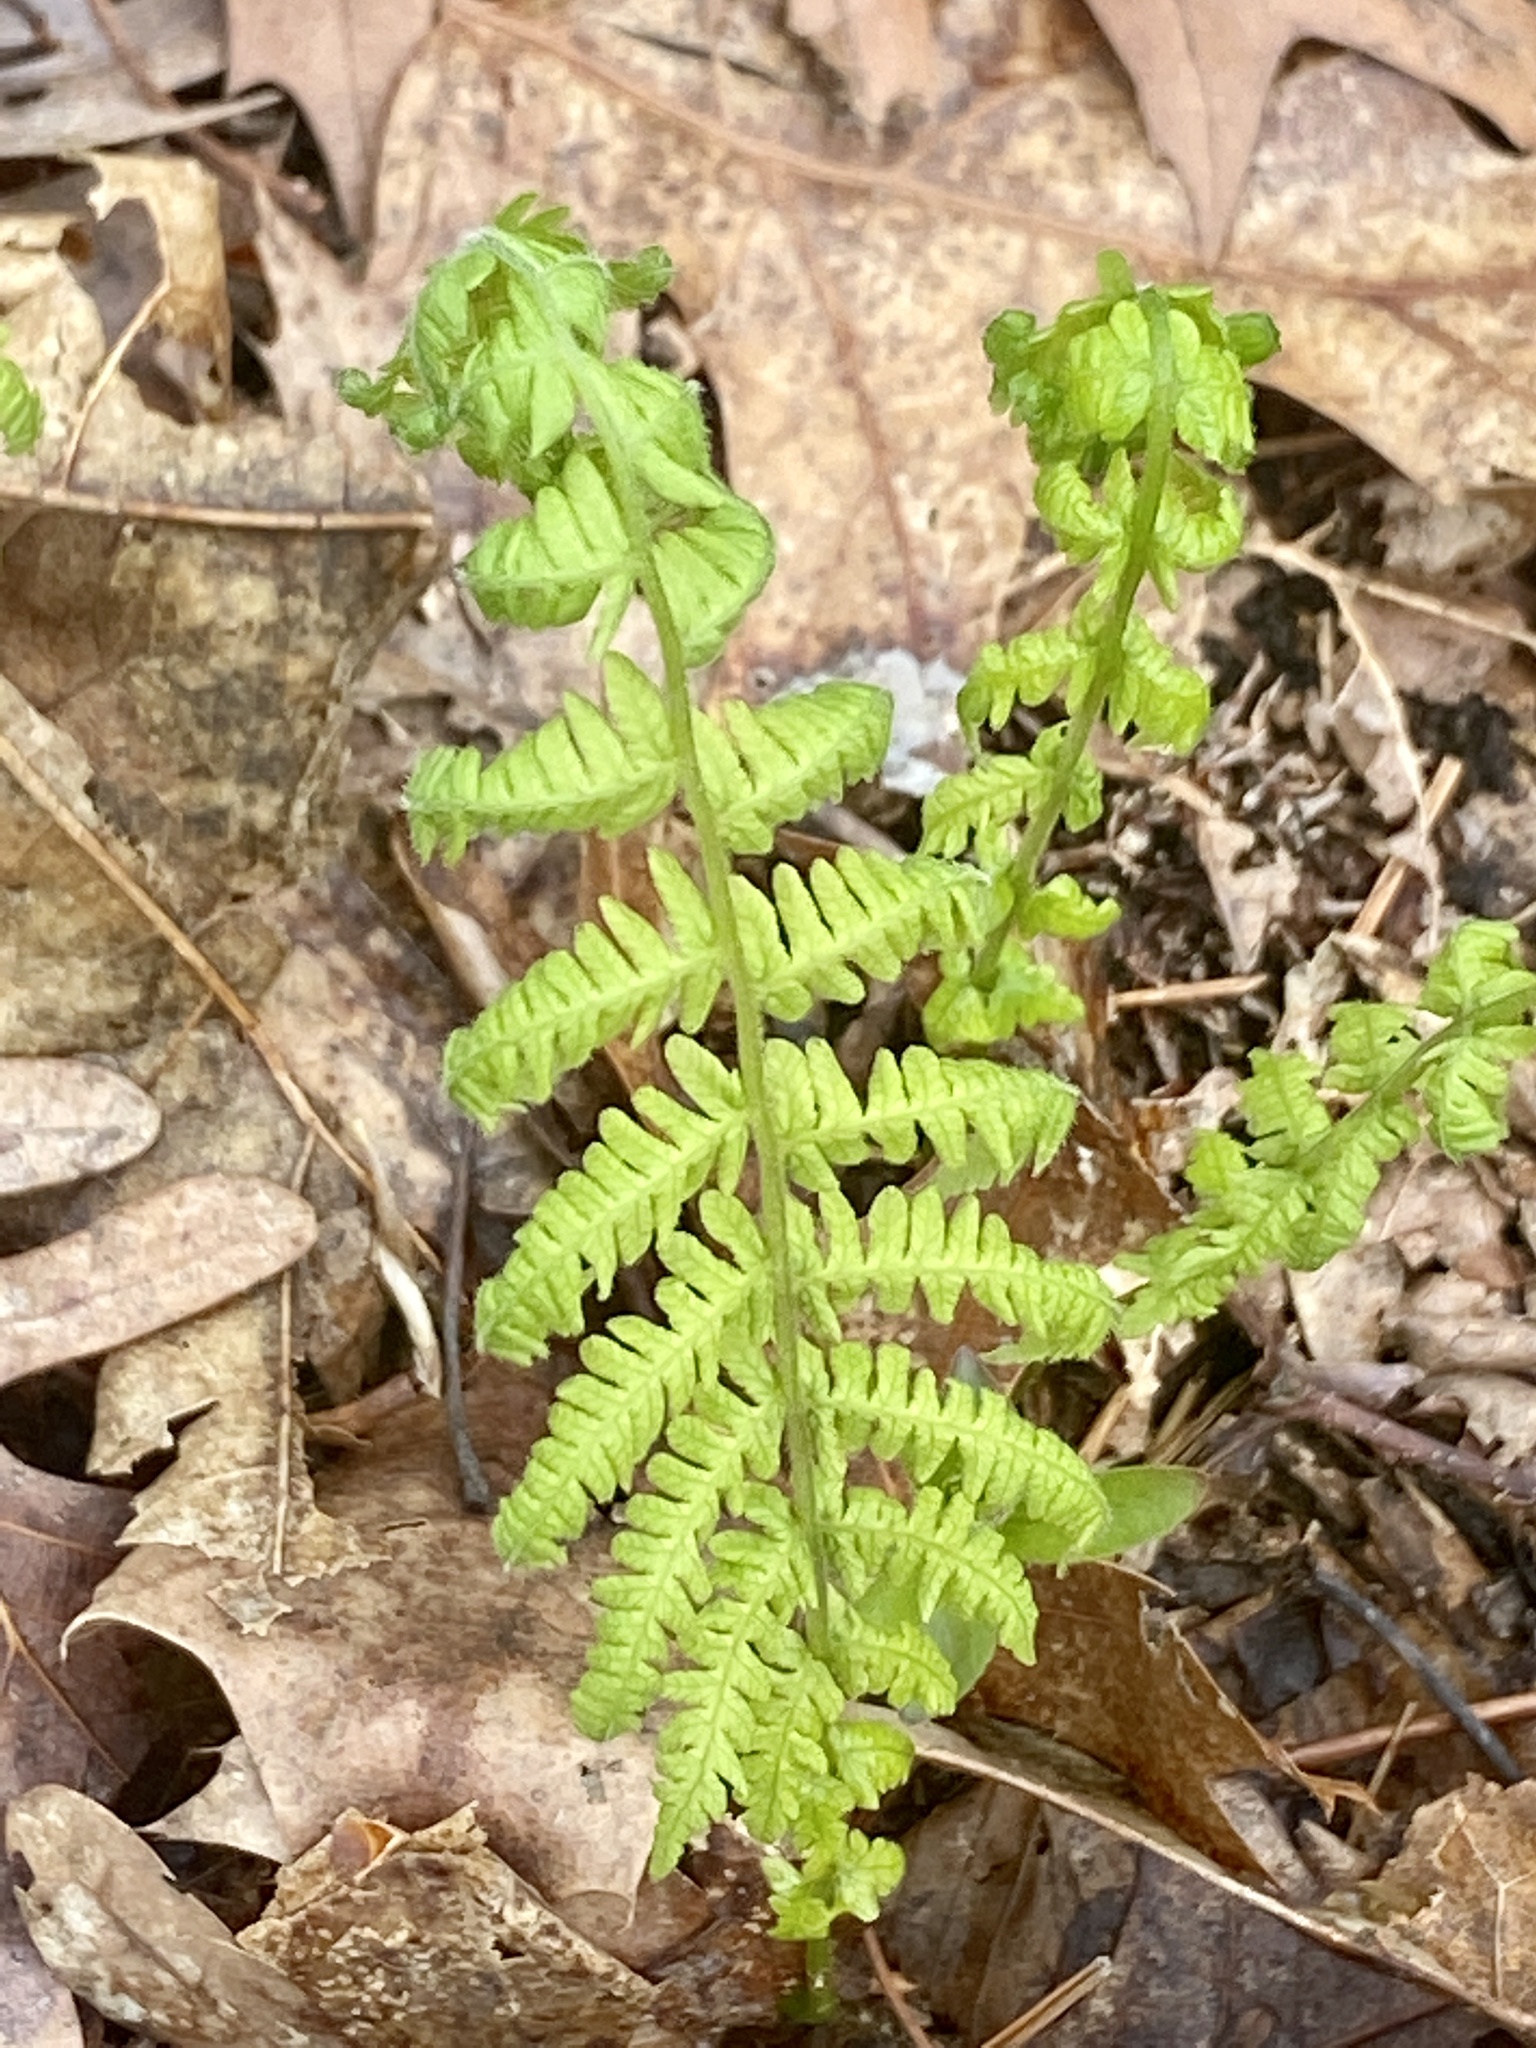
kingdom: Plantae
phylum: Tracheophyta
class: Polypodiopsida
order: Polypodiales
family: Thelypteridaceae
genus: Amauropelta
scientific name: Amauropelta noveboracensis
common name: New york fern
